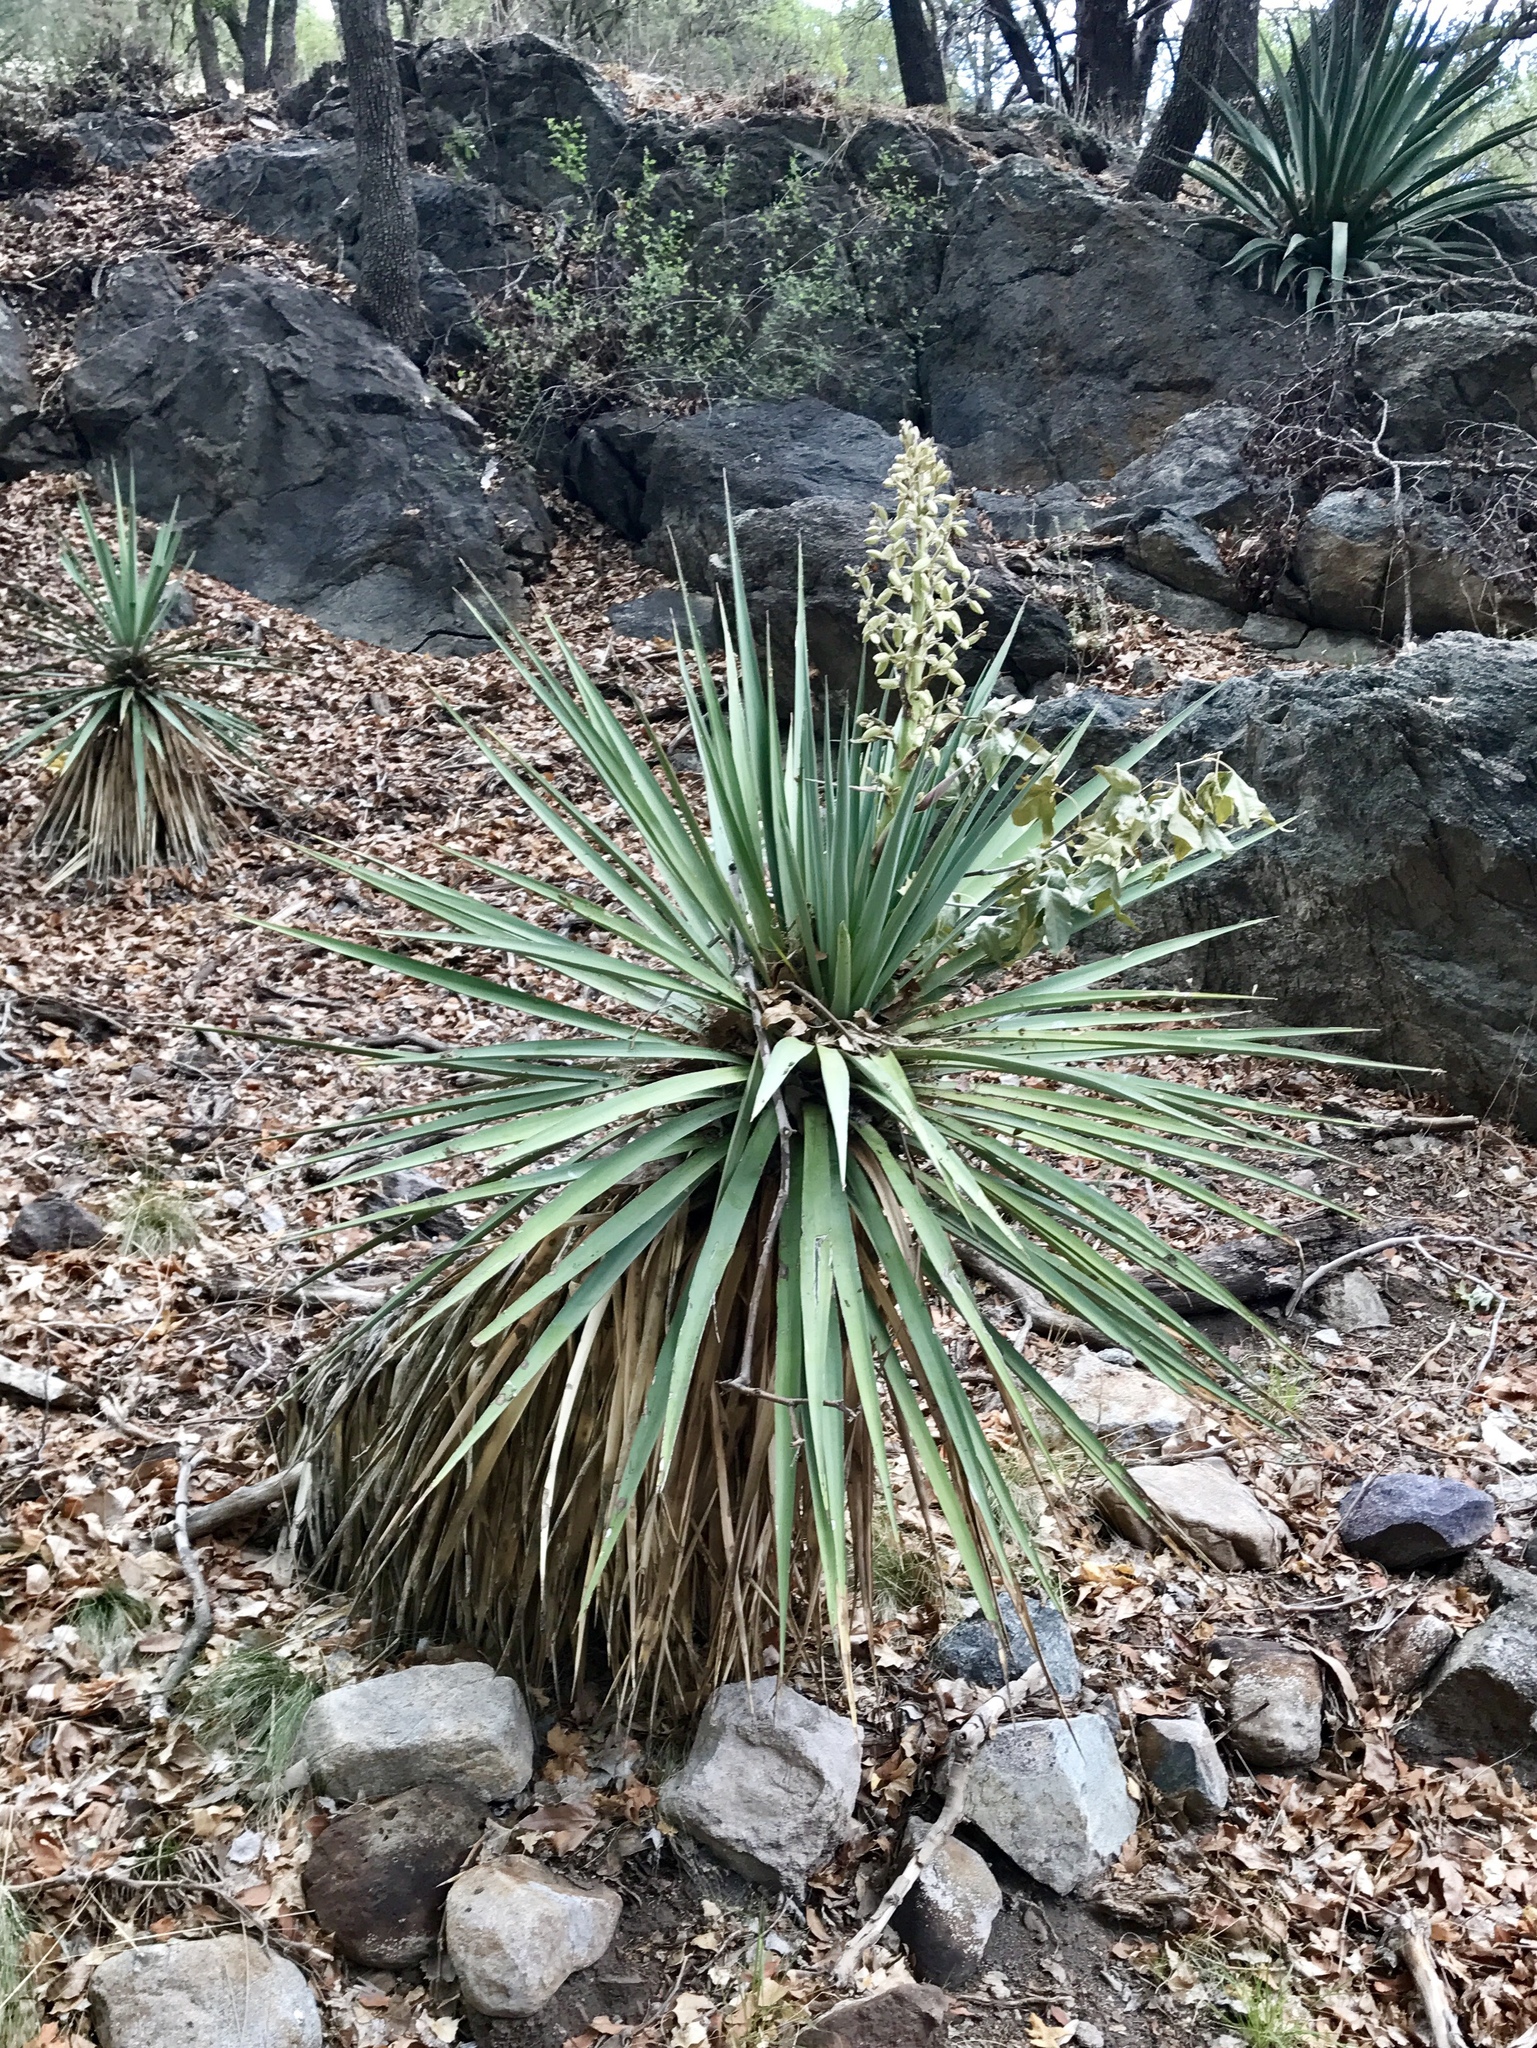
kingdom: Plantae
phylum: Tracheophyta
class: Liliopsida
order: Asparagales
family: Asparagaceae
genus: Yucca
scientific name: Yucca madrensis
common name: Hoary yucca
